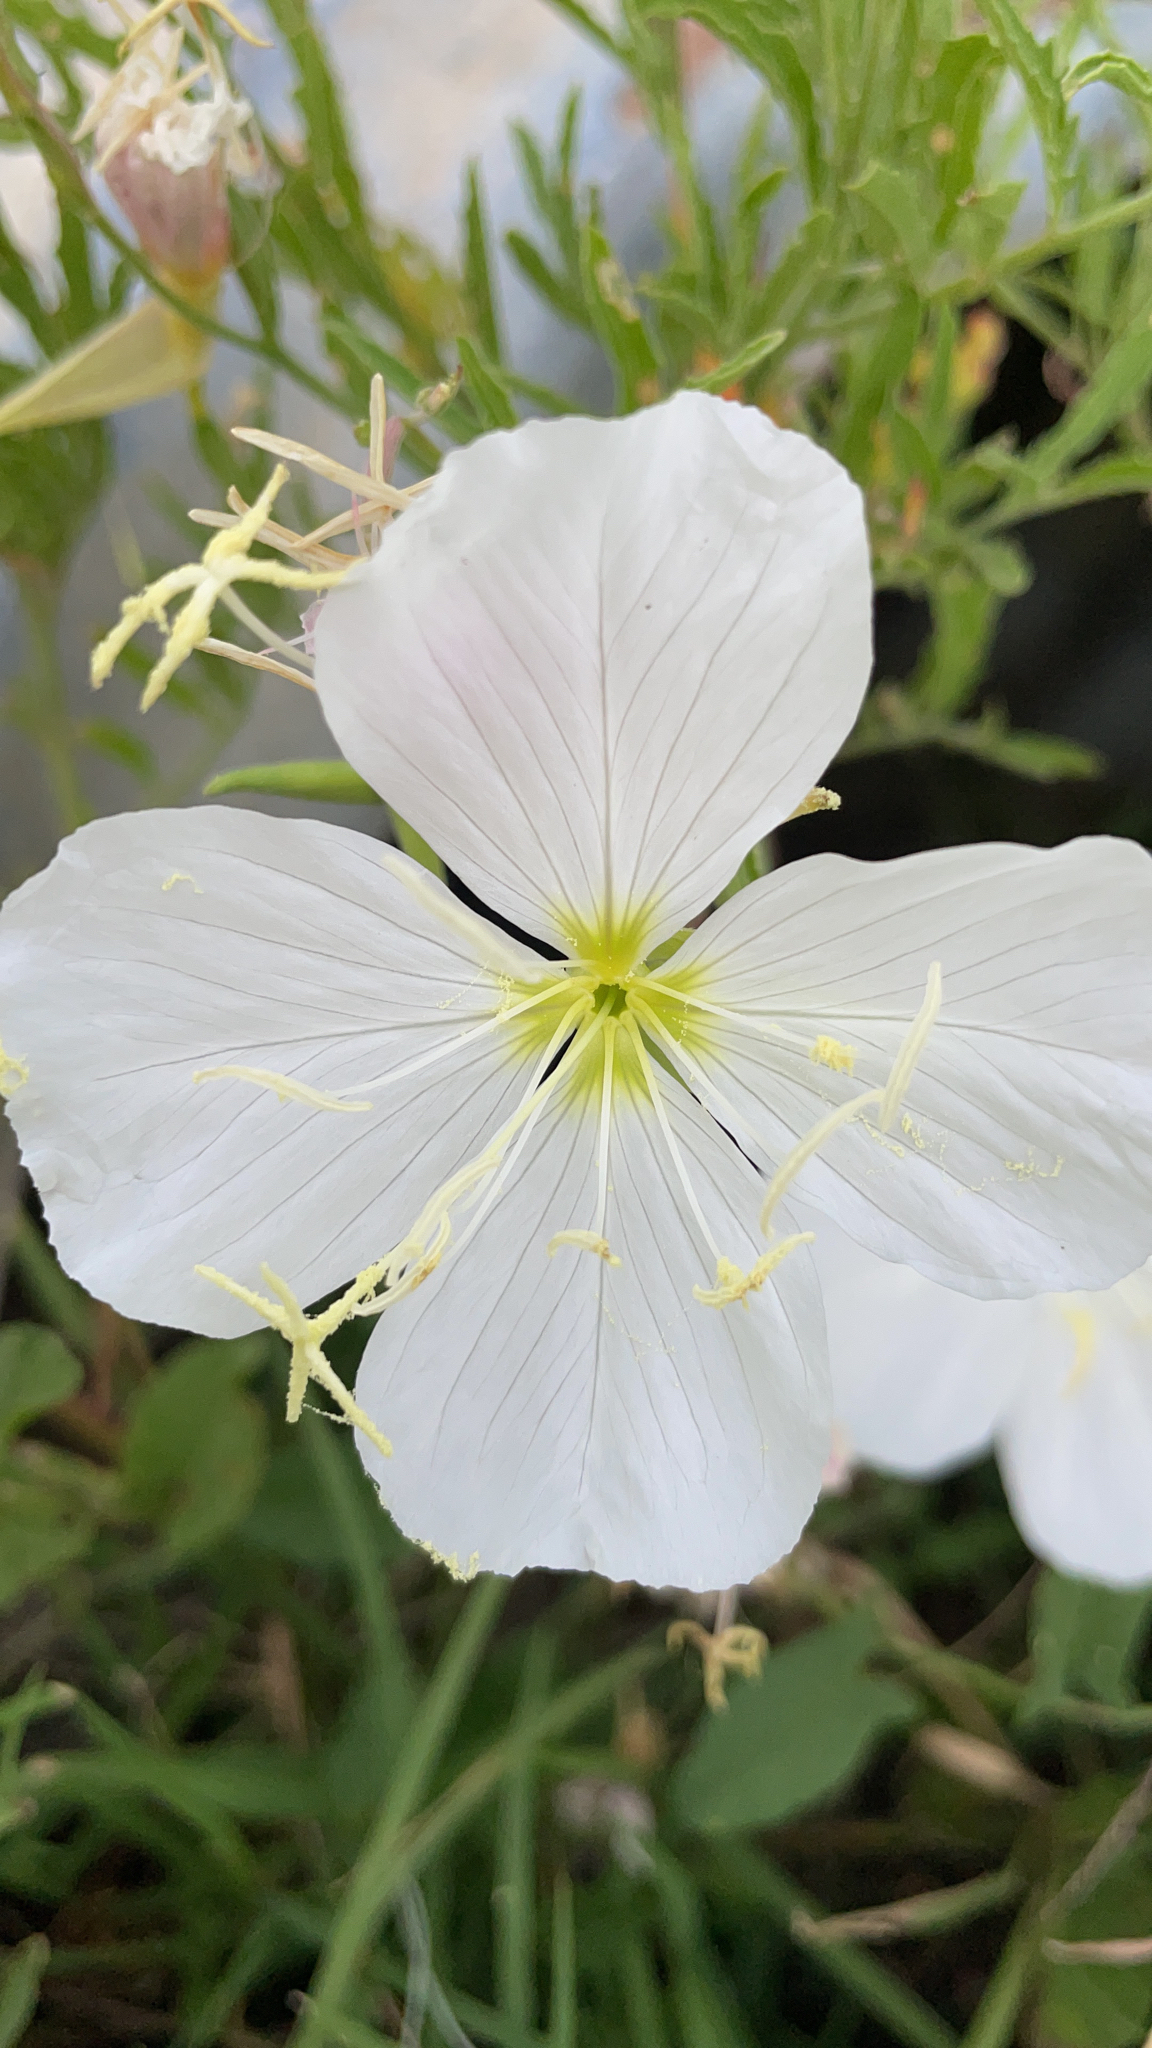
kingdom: Plantae
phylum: Tracheophyta
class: Magnoliopsida
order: Myrtales
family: Onagraceae
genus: Oenothera
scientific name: Oenothera speciosa
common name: White evening-primrose
